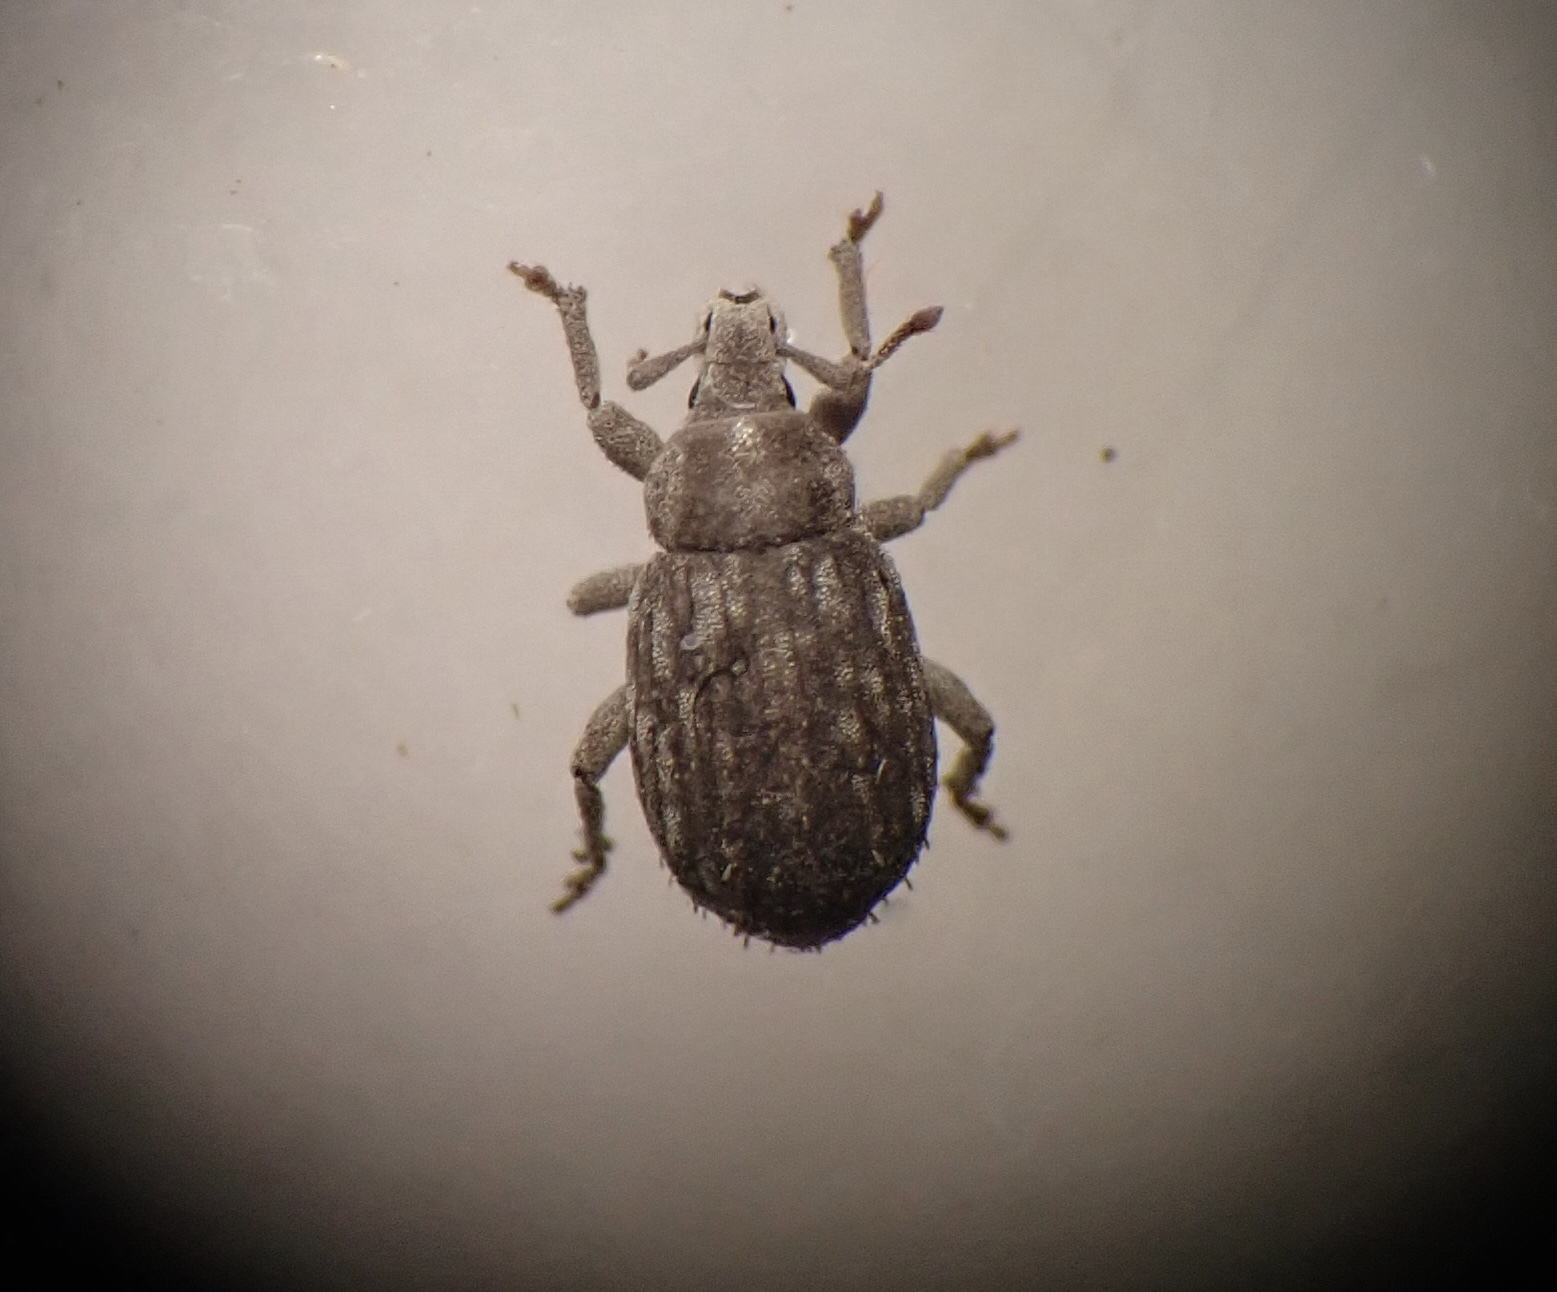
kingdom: Animalia
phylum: Arthropoda
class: Insecta
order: Coleoptera
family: Curculionidae
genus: Romualdius
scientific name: Romualdius scaber
